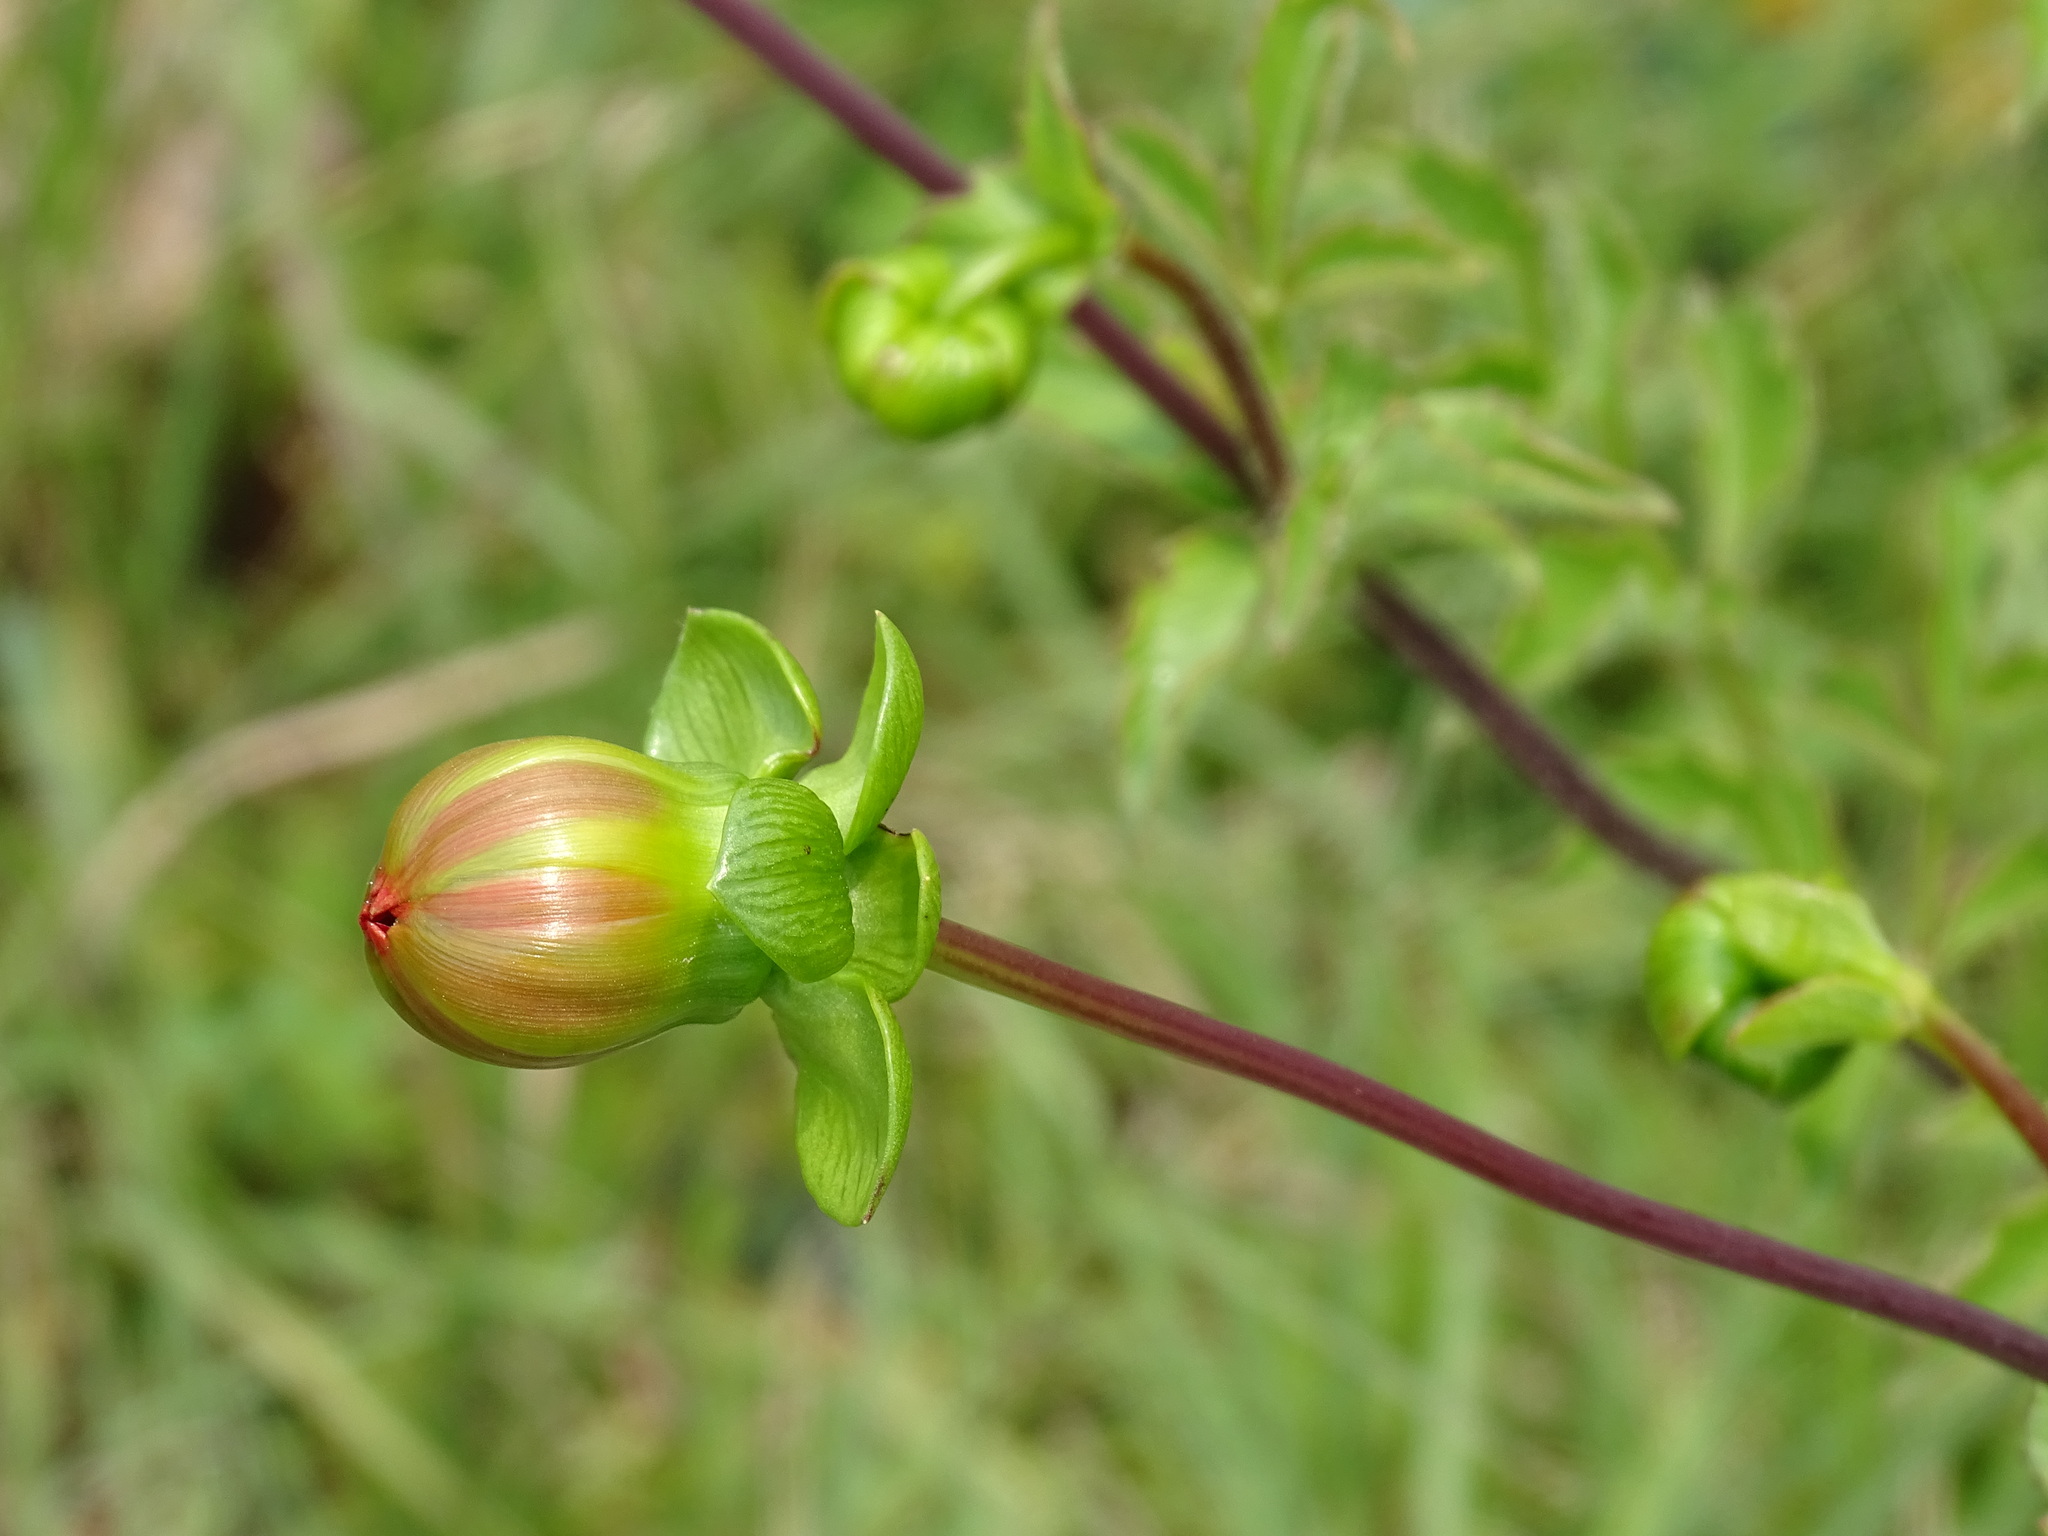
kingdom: Plantae
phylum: Tracheophyta
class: Magnoliopsida
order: Asterales
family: Asteraceae
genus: Dahlia
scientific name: Dahlia coccinea
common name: Red dahlia
